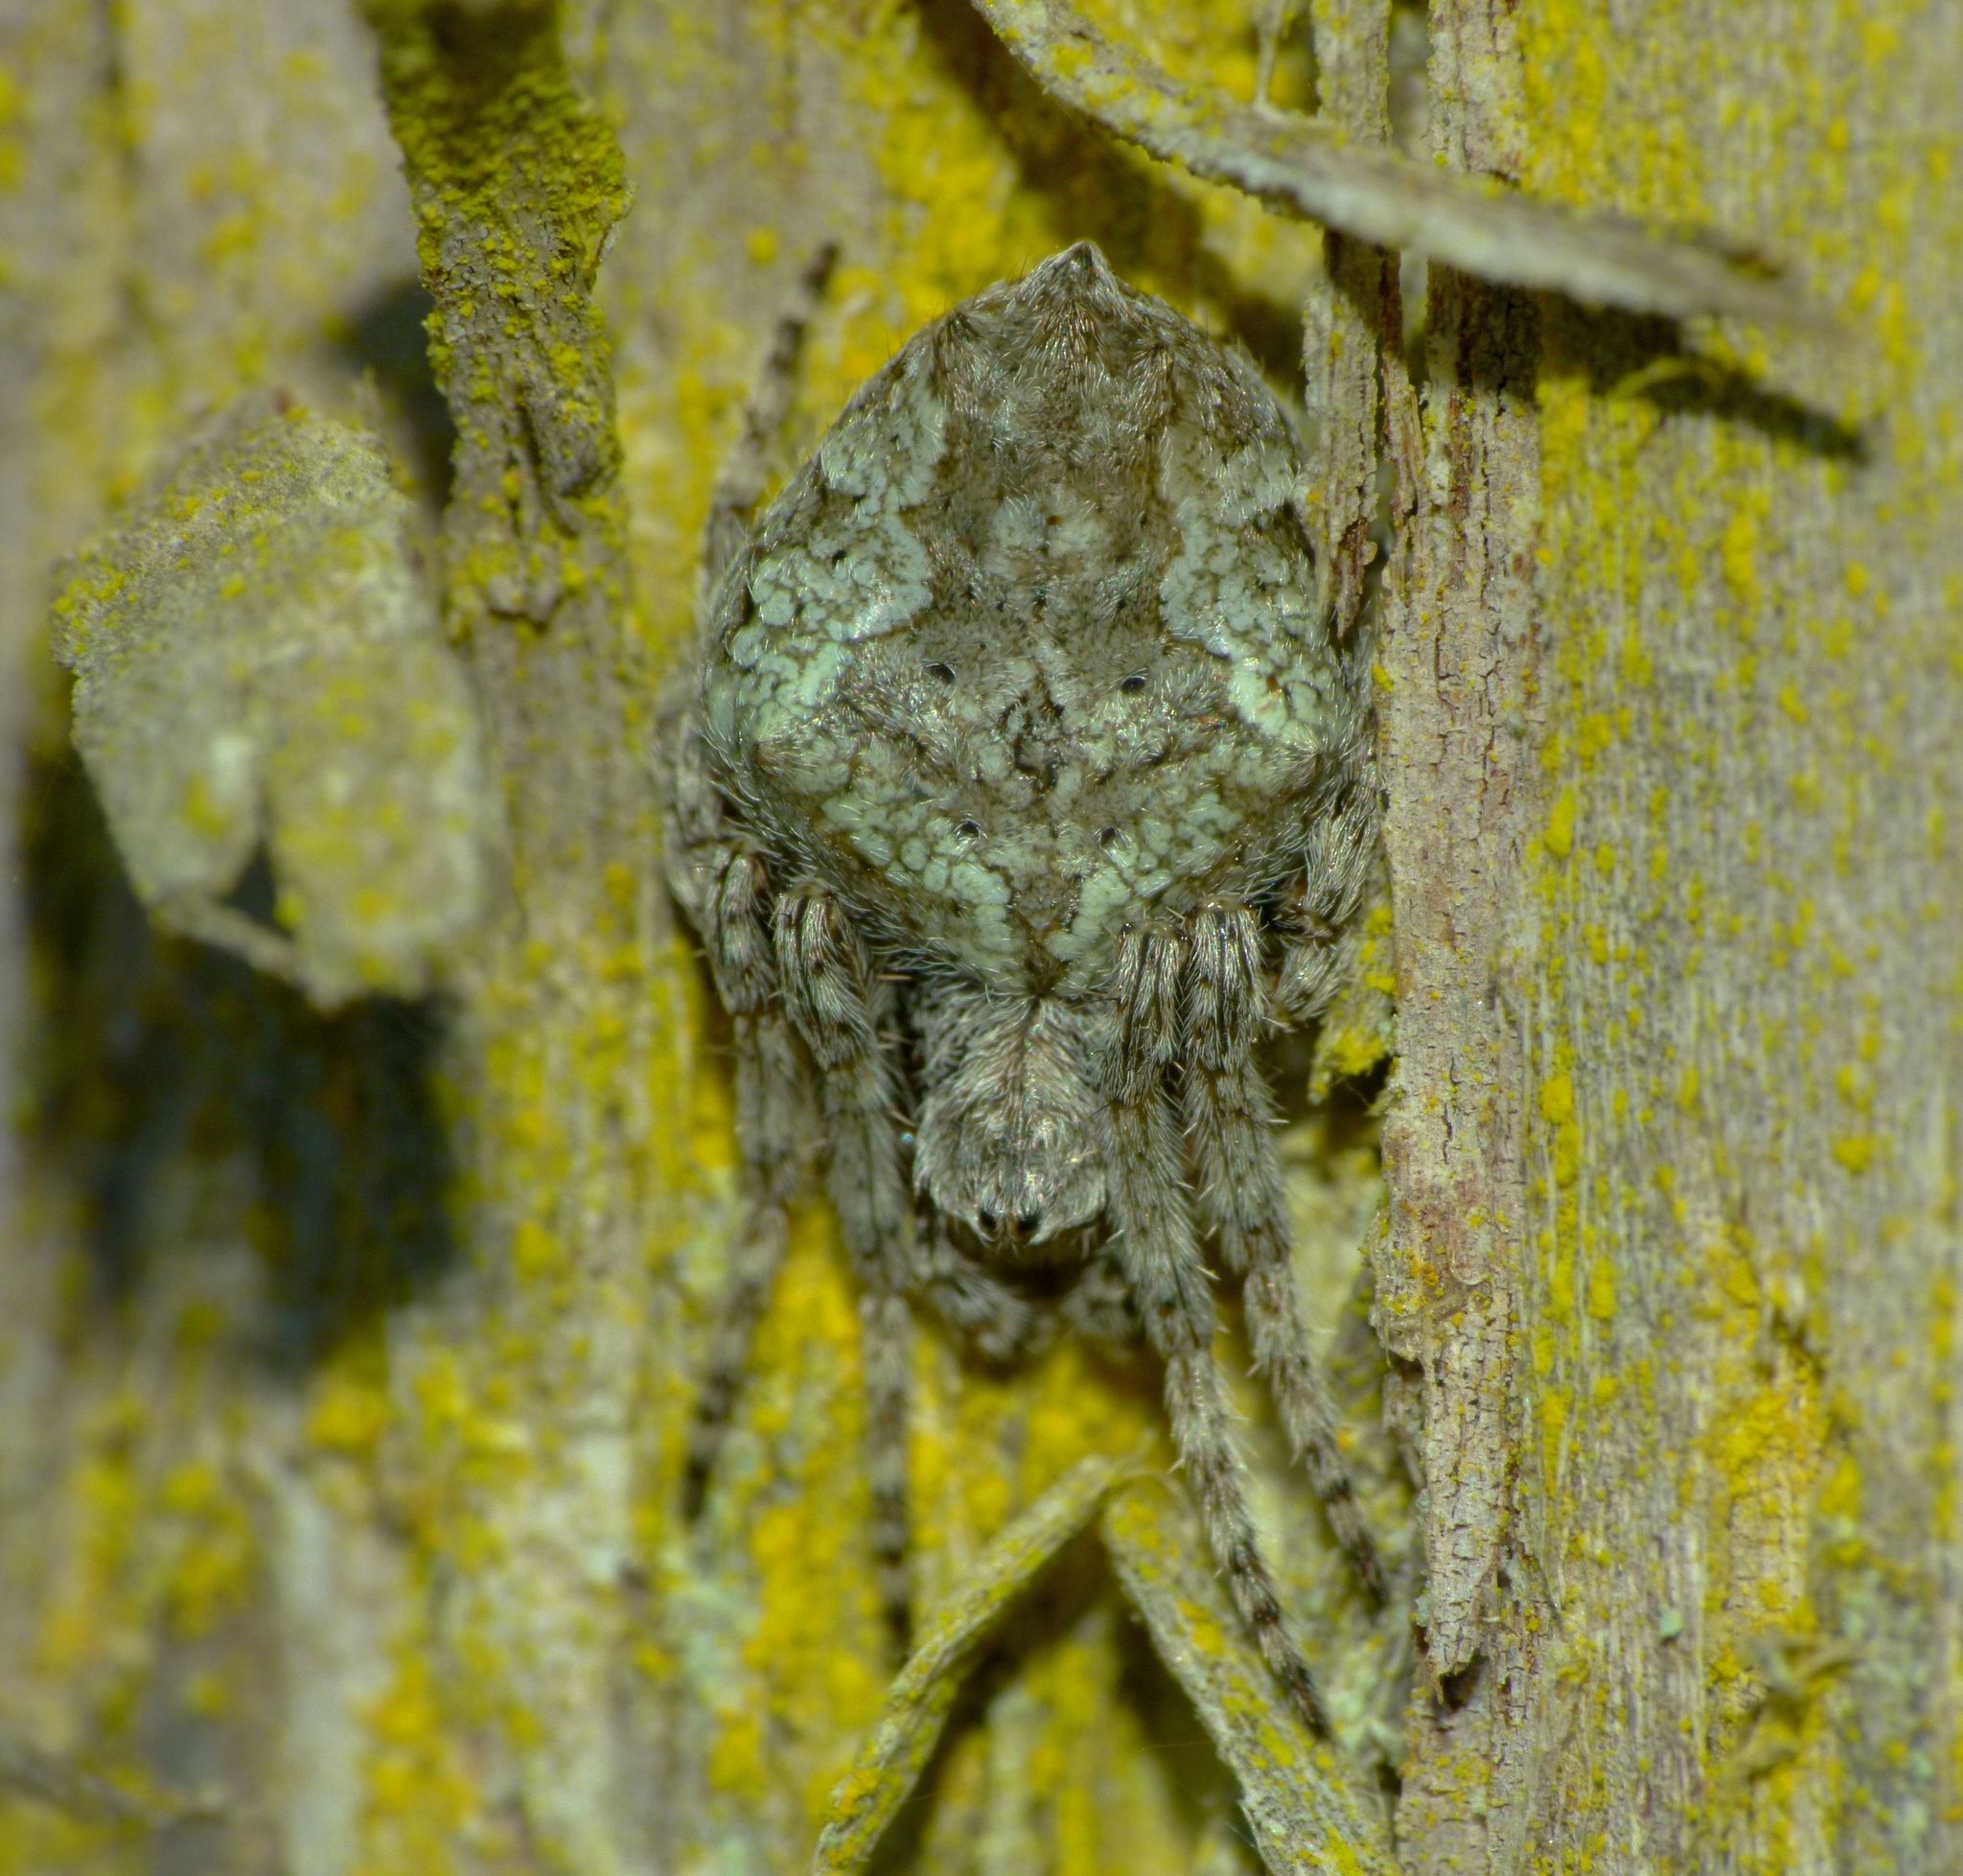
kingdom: Animalia
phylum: Arthropoda
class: Arachnida
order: Araneae
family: Araneidae
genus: Eriophora
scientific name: Eriophora pustulosa
